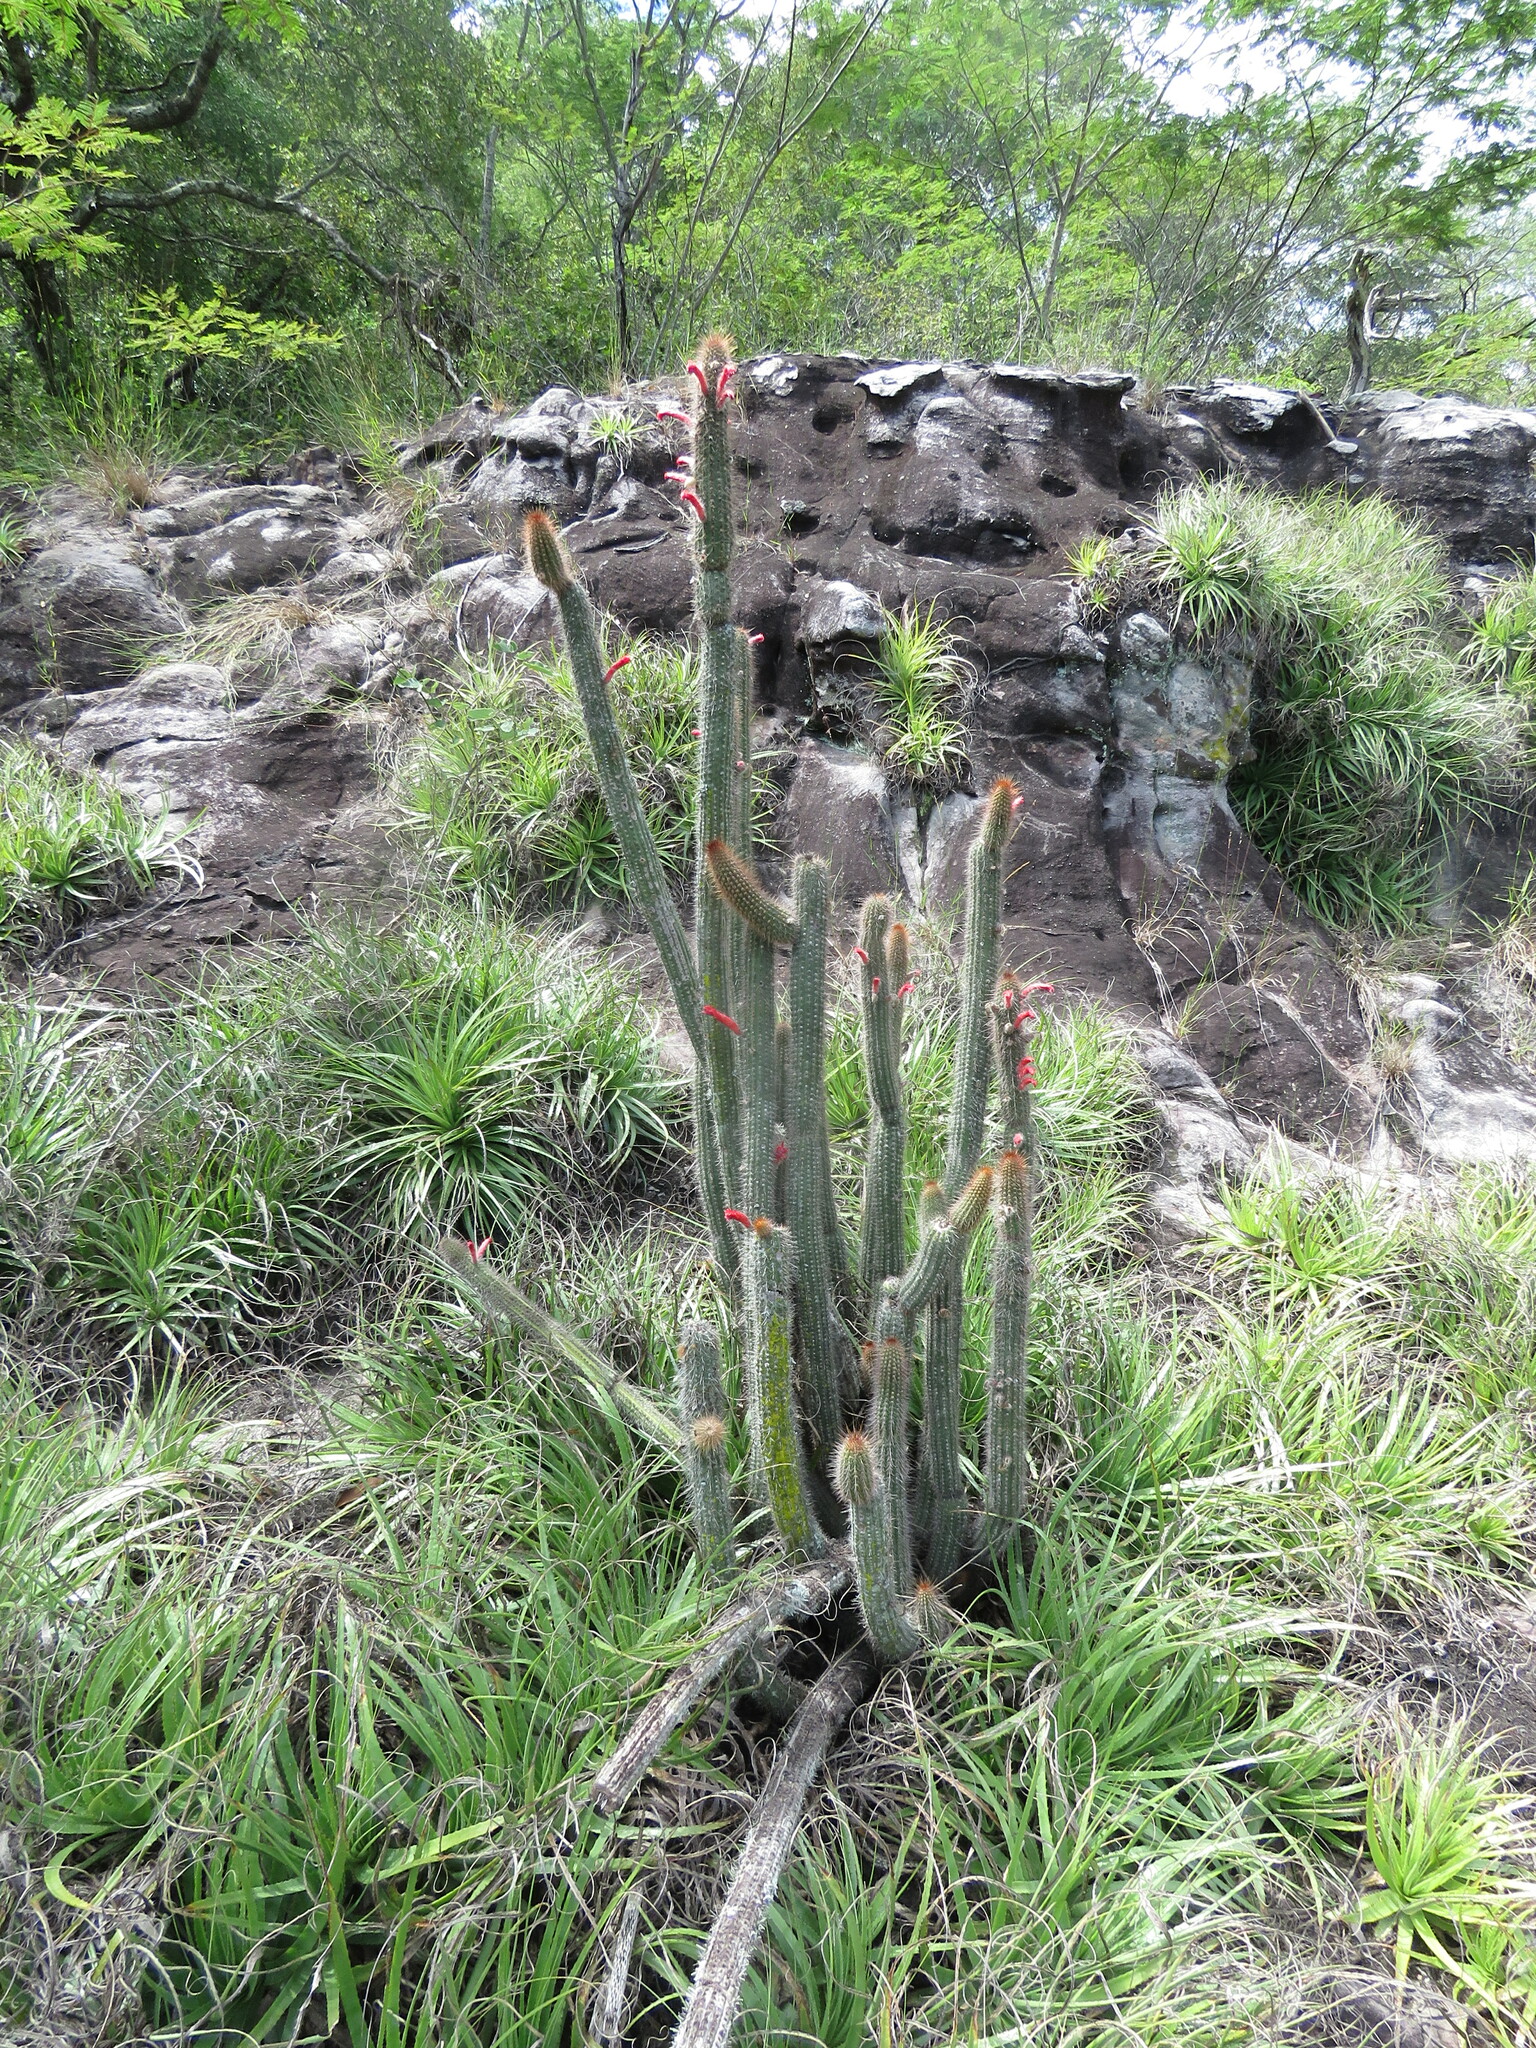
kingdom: Plantae
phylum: Tracheophyta
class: Magnoliopsida
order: Caryophyllales
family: Cactaceae
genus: Borzicactus
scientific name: Borzicactus samaipatanus
